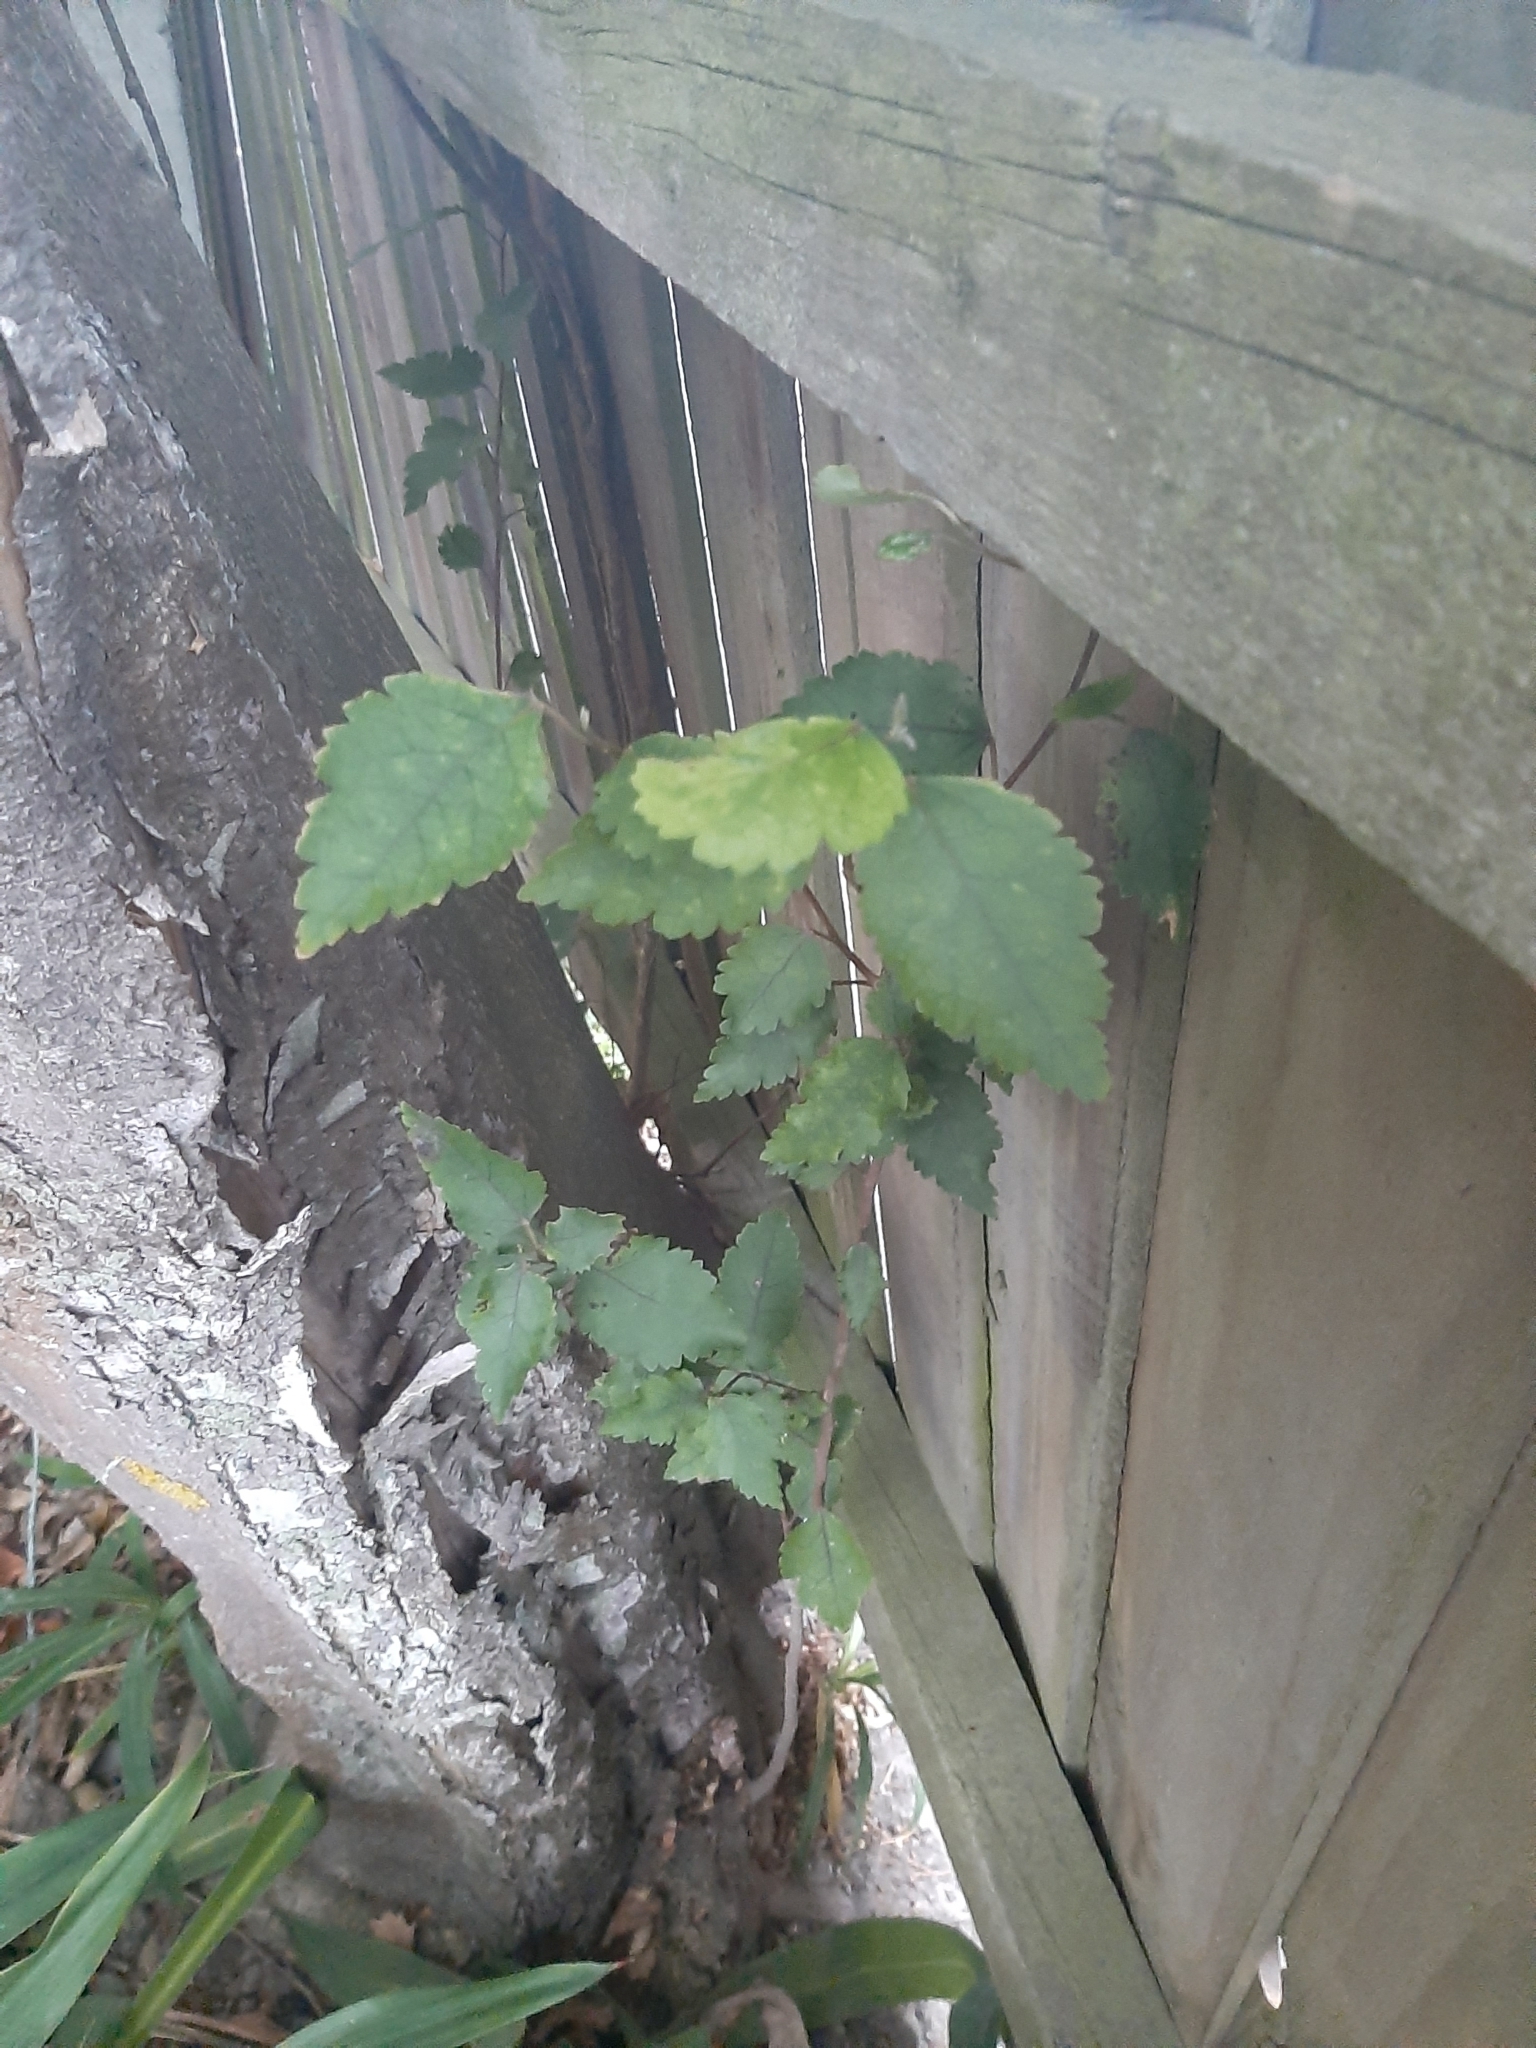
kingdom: Plantae
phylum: Tracheophyta
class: Magnoliopsida
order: Malvales
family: Malvaceae
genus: Hoheria
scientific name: Hoheria populnea
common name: Lacebark
